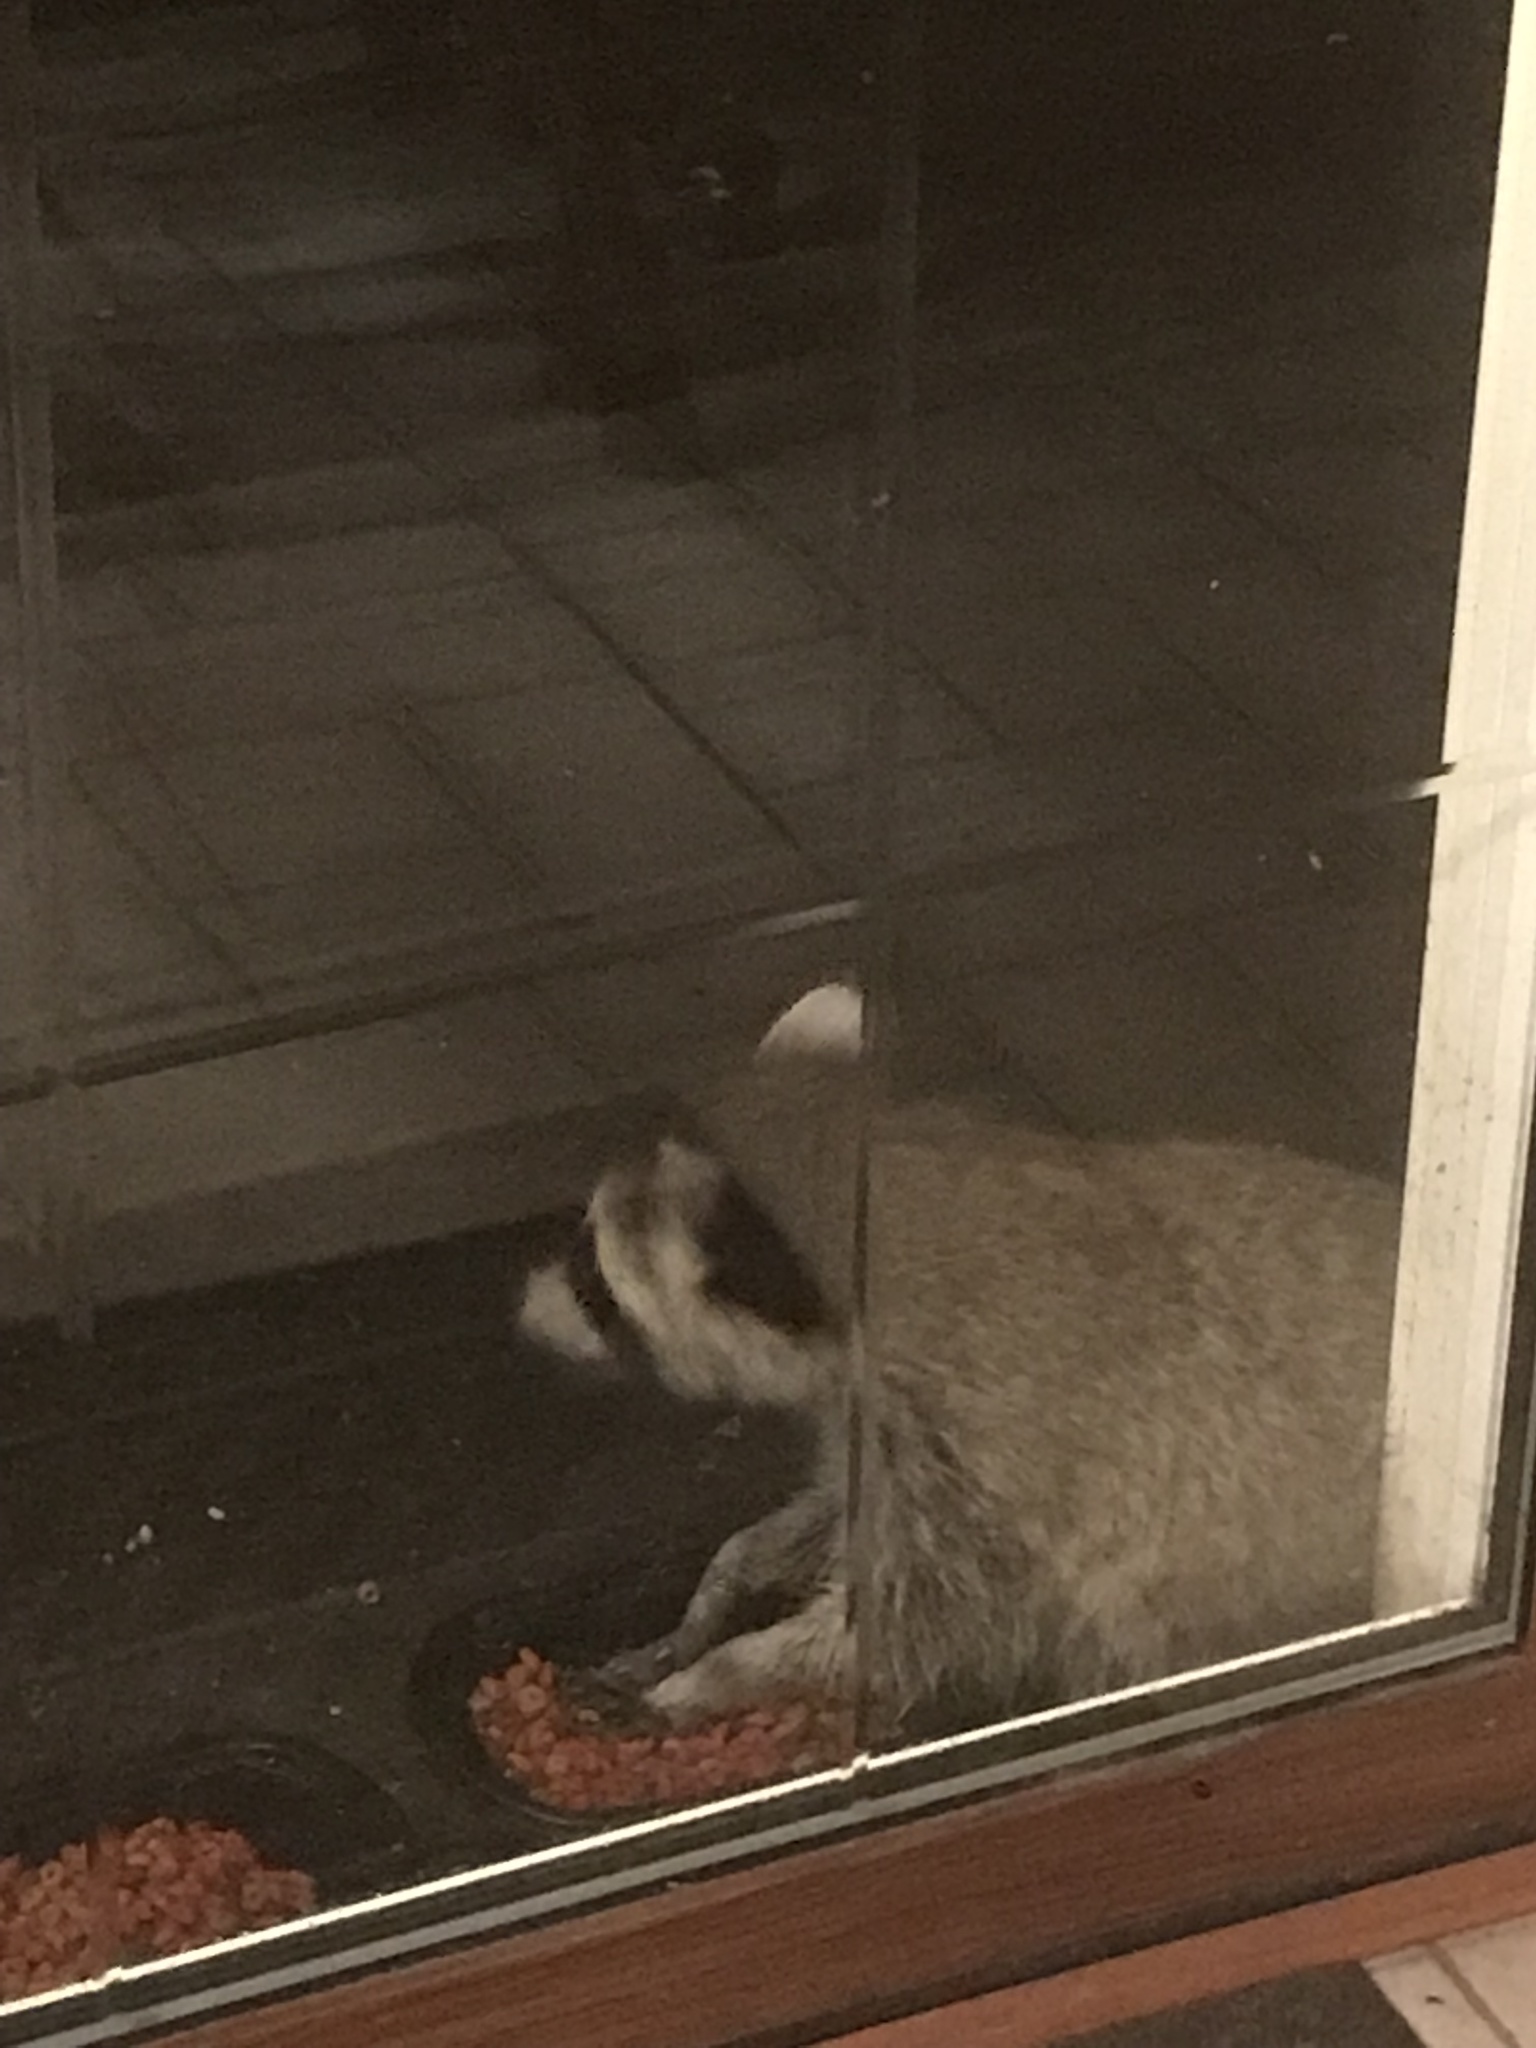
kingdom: Animalia
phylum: Chordata
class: Mammalia
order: Carnivora
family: Procyonidae
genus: Procyon
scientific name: Procyon lotor
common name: Raccoon
